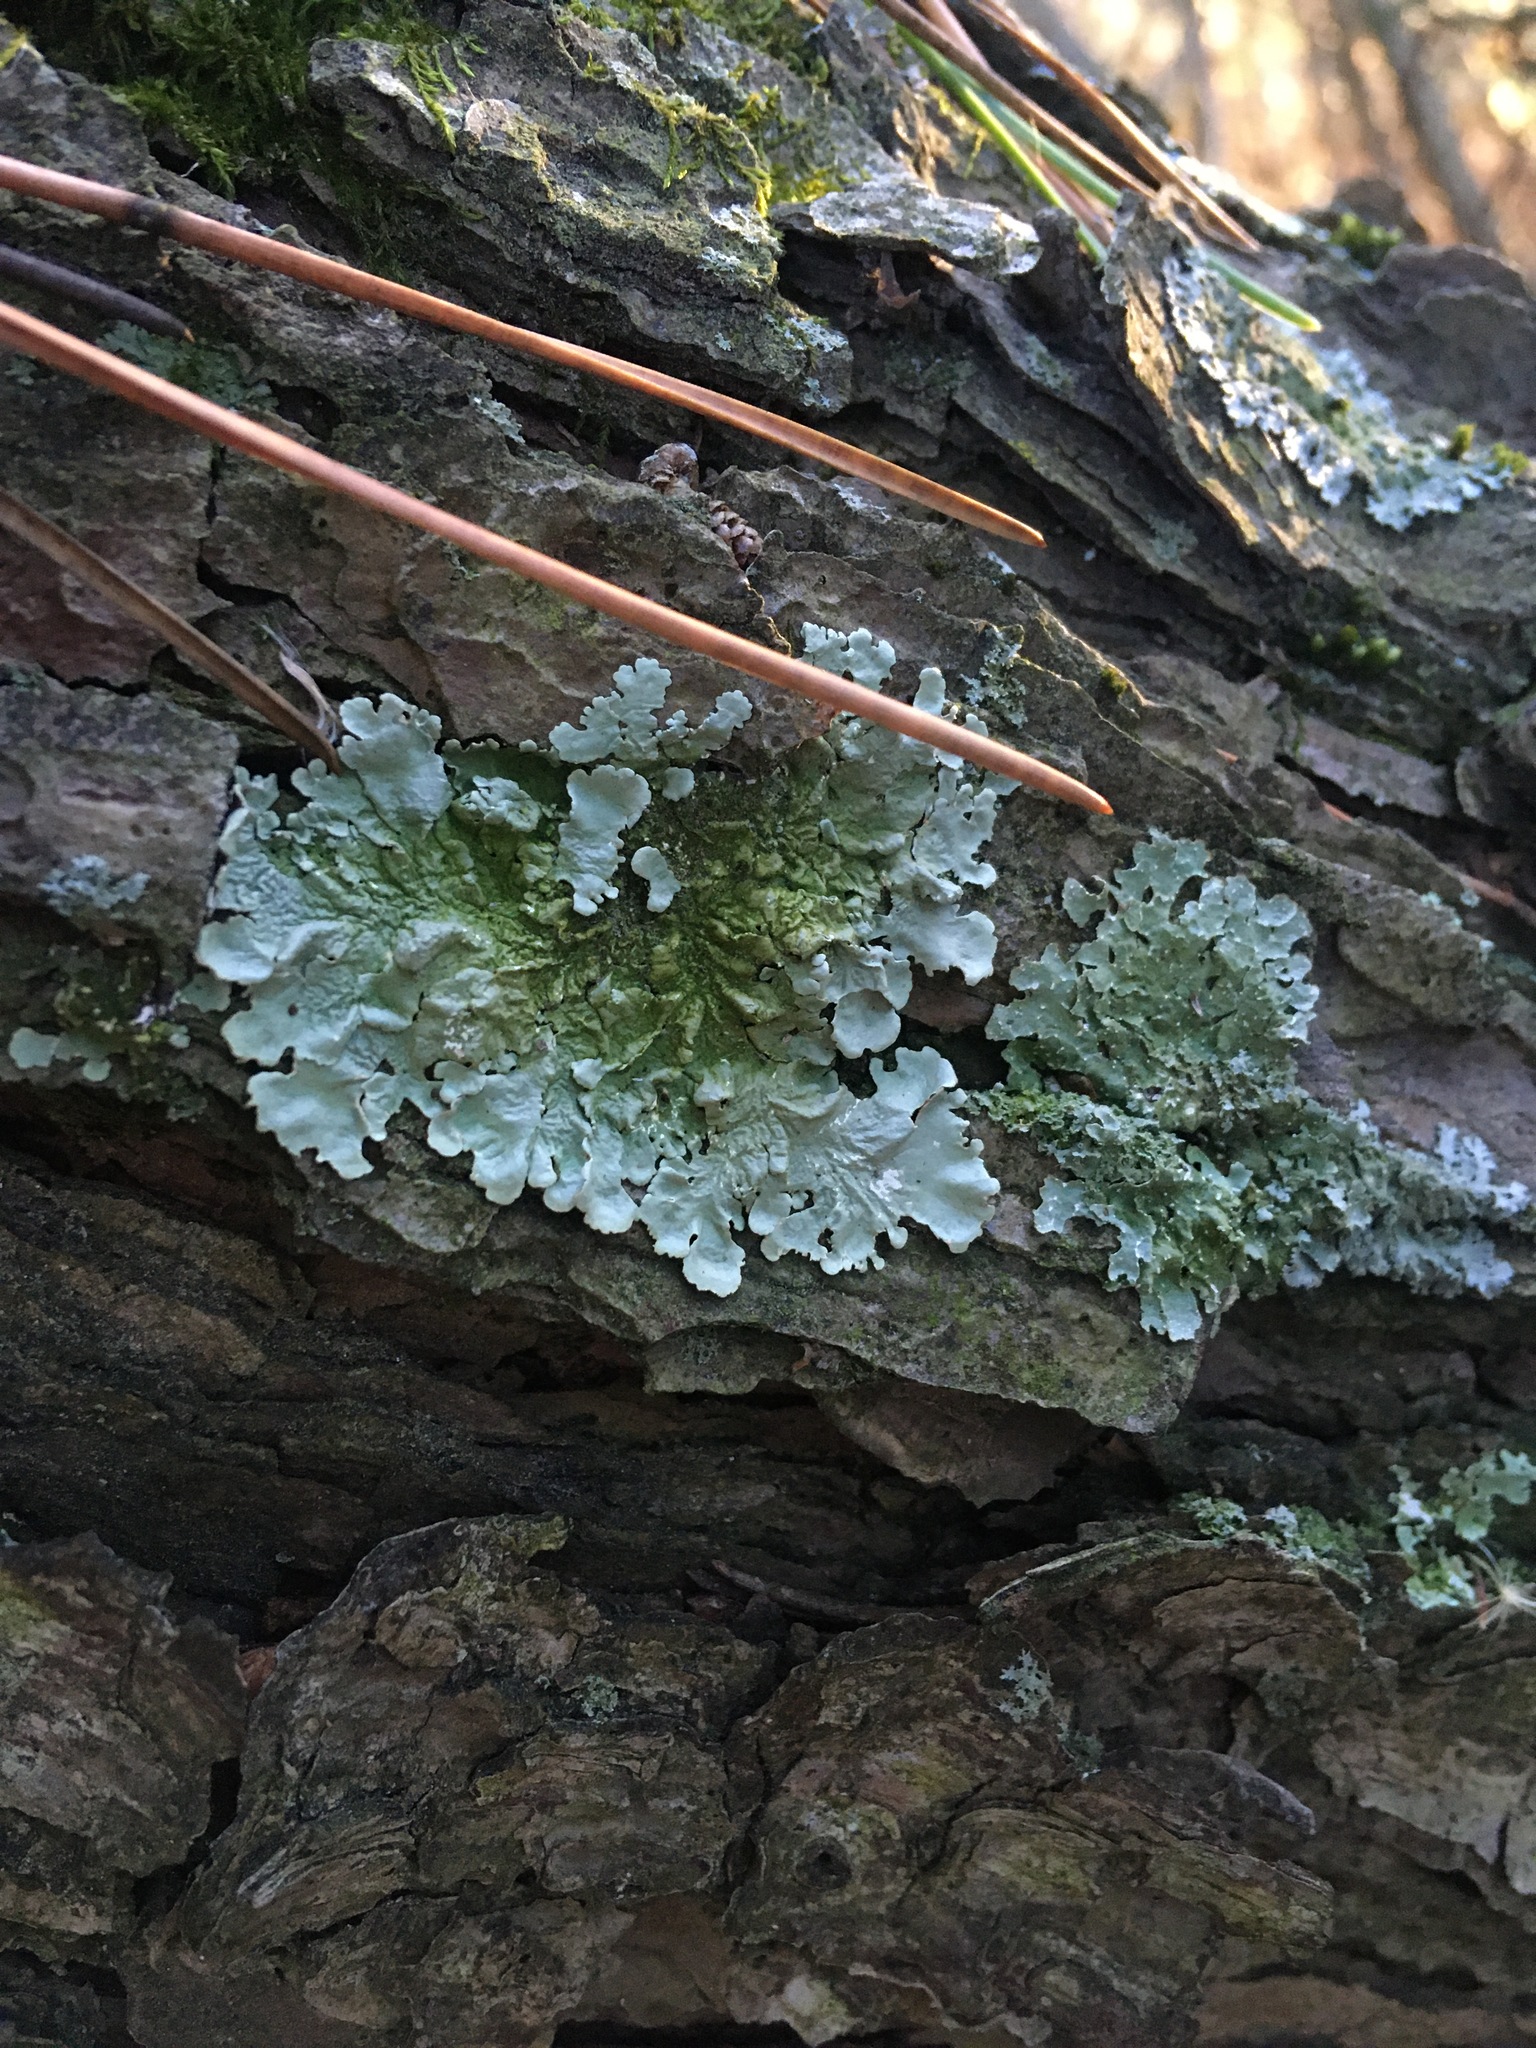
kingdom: Fungi
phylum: Ascomycota
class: Lecanoromycetes
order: Lecanorales
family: Parmeliaceae
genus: Flavoparmelia
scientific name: Flavoparmelia caperata
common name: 40-mile per hour lichen
